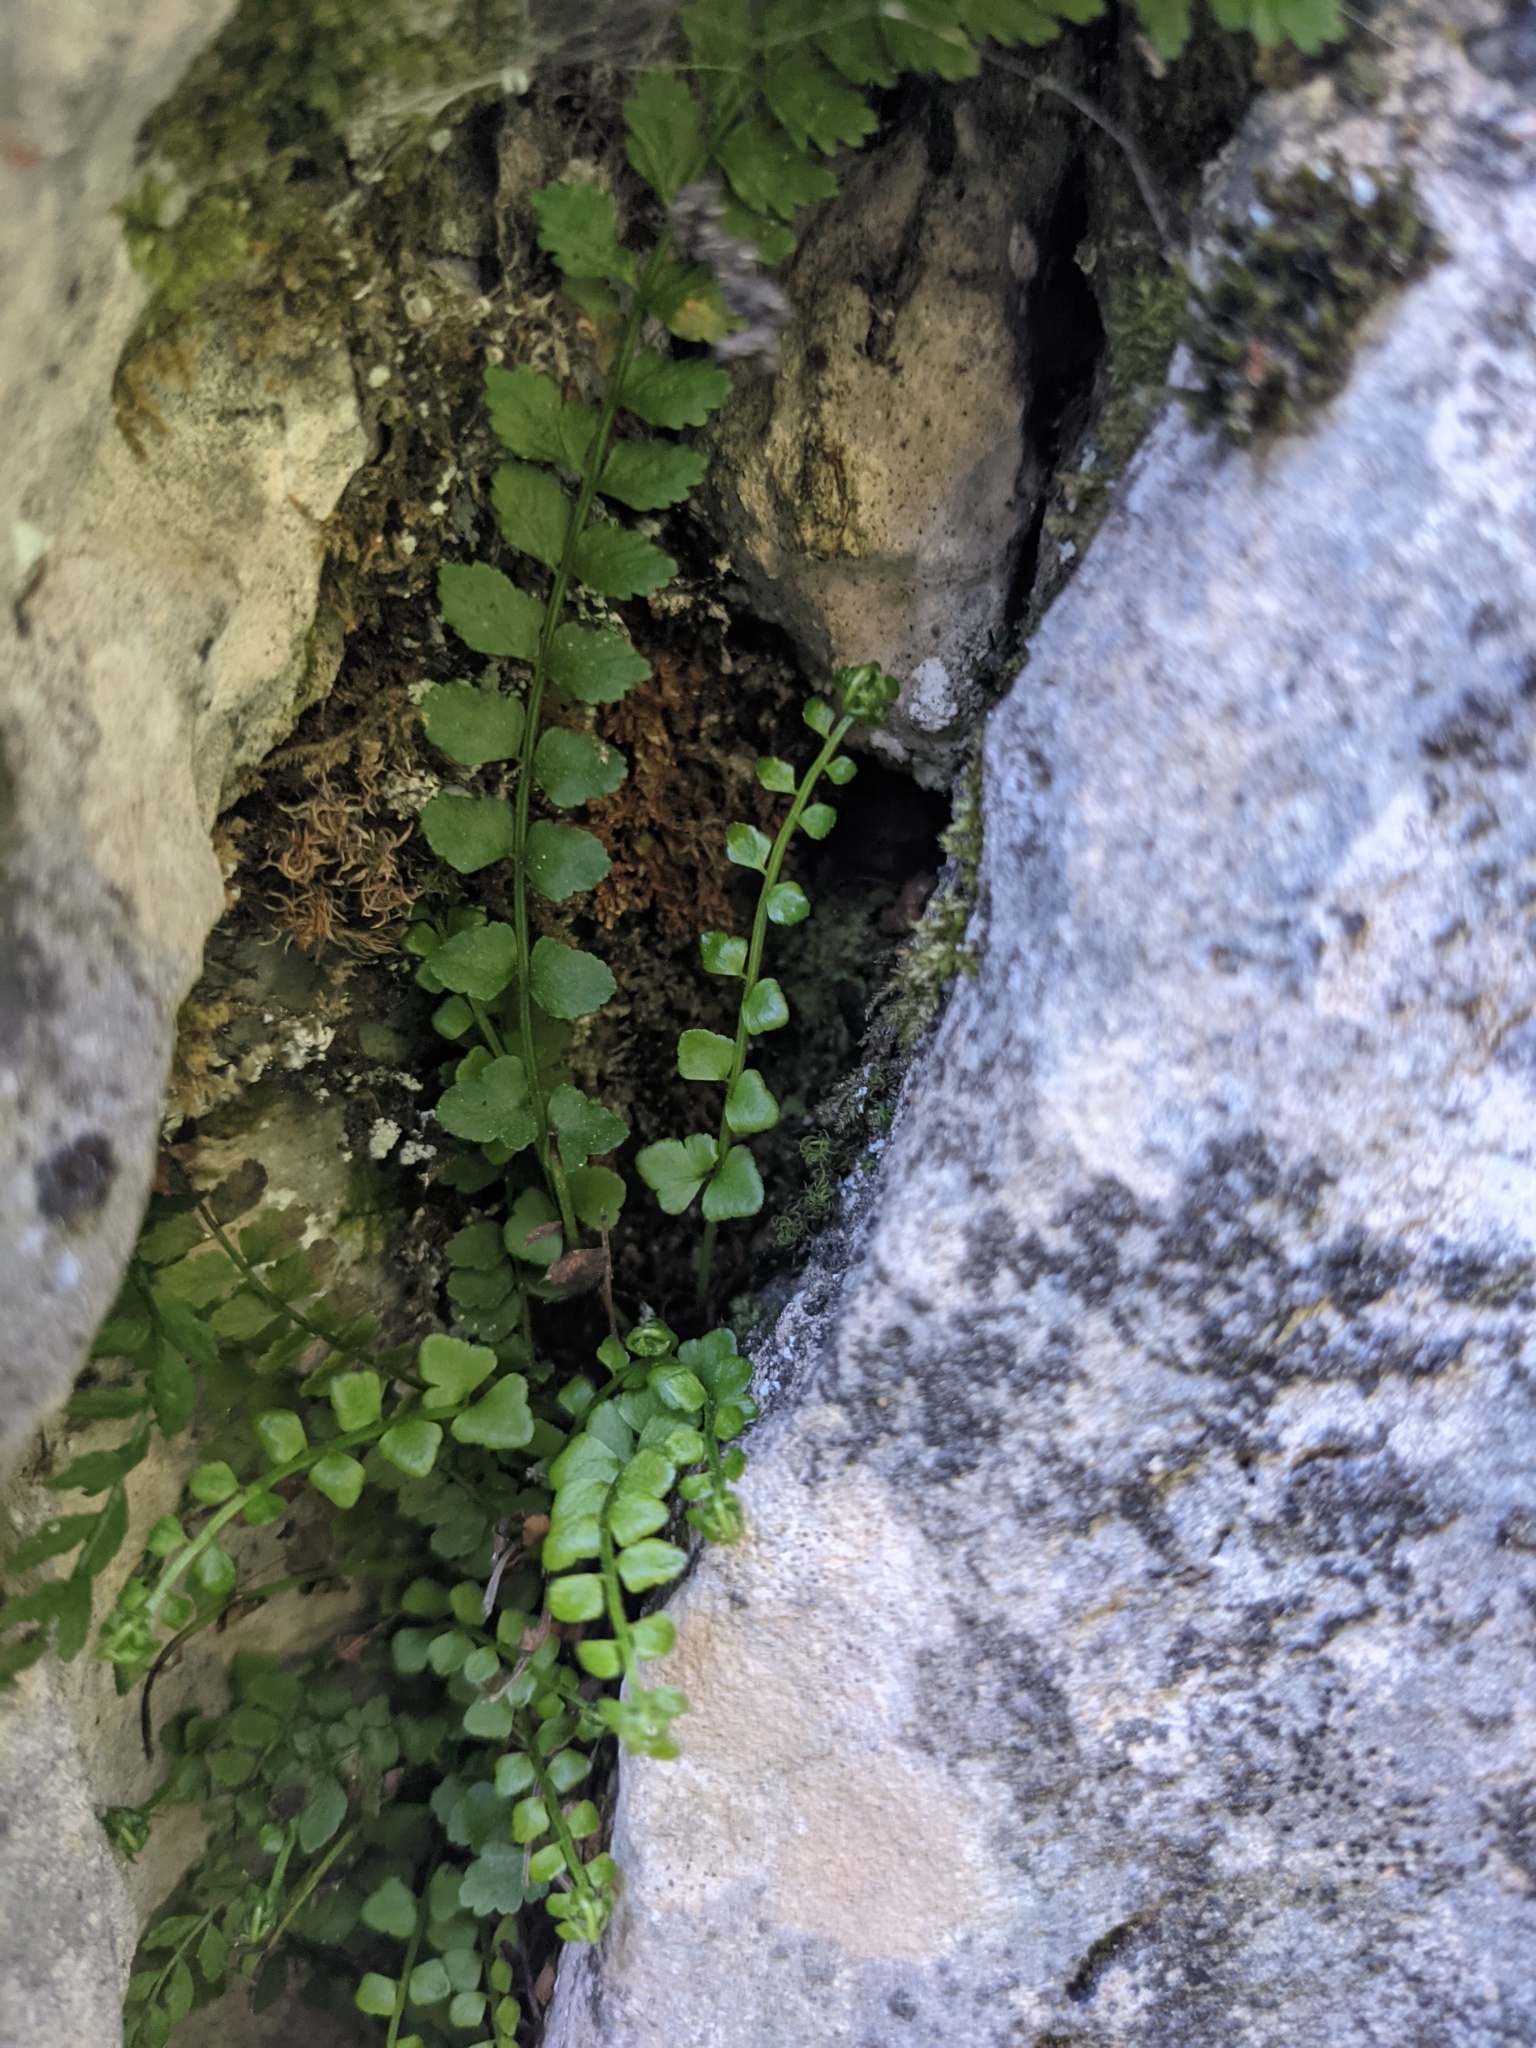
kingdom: Plantae
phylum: Tracheophyta
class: Polypodiopsida
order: Polypodiales
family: Aspleniaceae
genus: Asplenium
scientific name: Asplenium viride
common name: Green spleenwort
